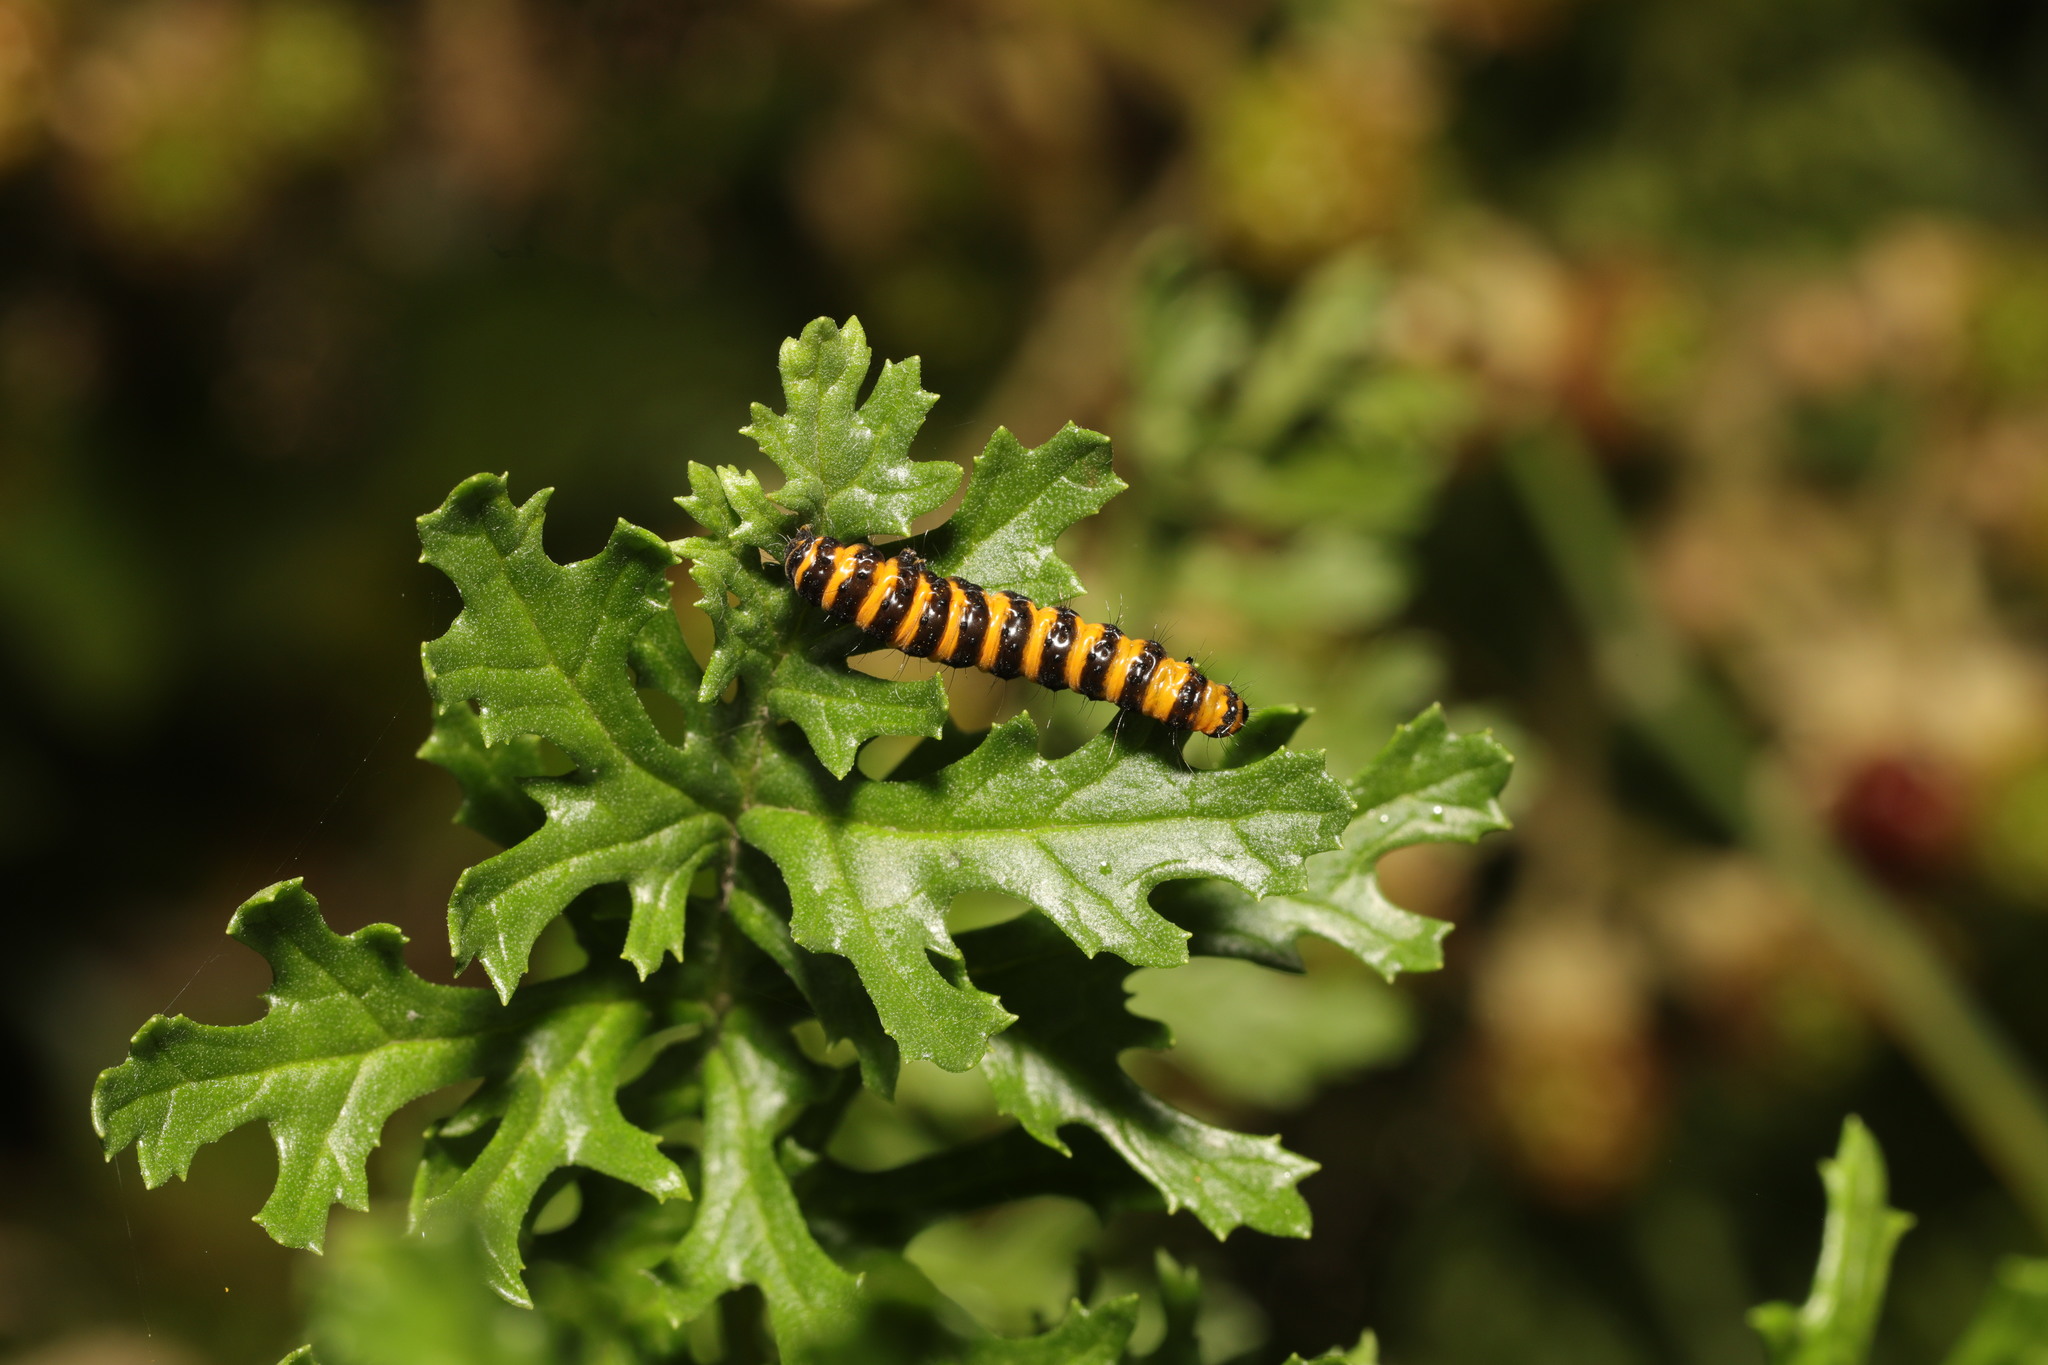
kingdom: Animalia
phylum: Arthropoda
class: Insecta
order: Lepidoptera
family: Erebidae
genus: Tyria
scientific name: Tyria jacobaeae
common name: Cinnabar
